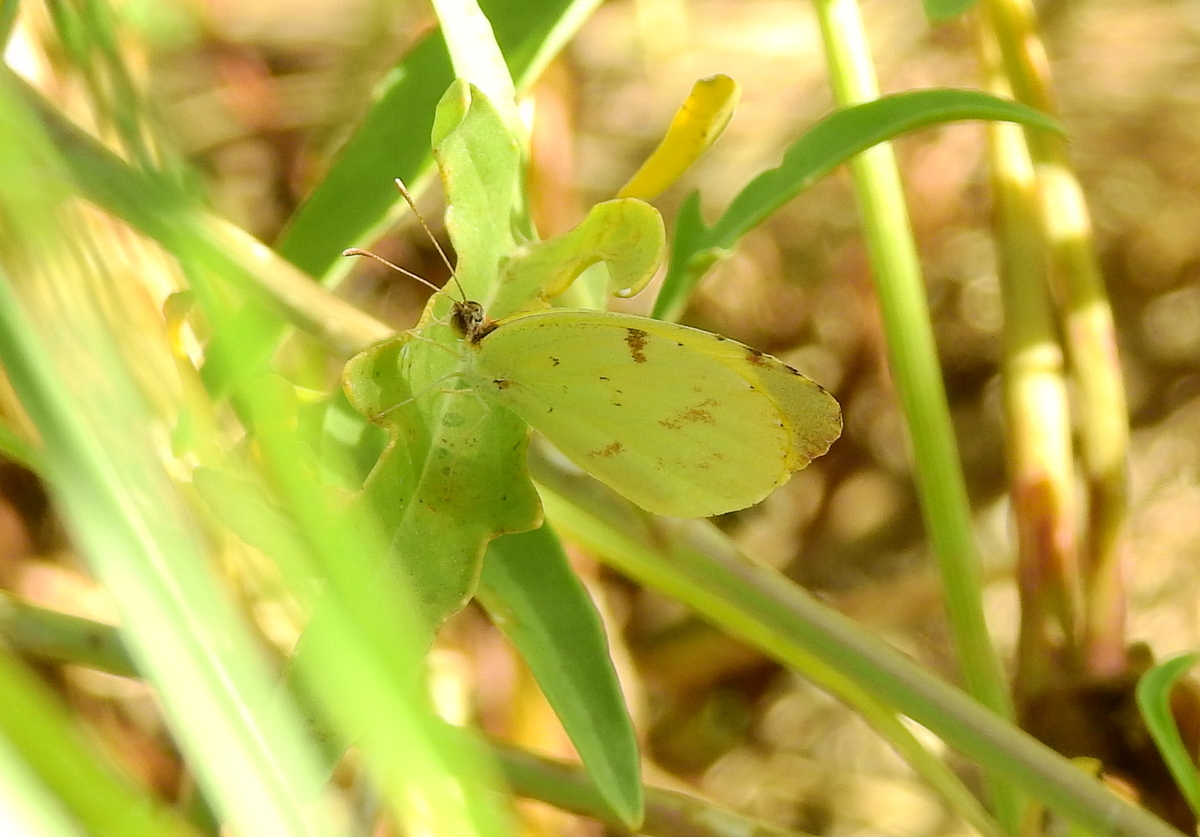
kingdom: Animalia
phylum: Arthropoda
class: Insecta
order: Lepidoptera
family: Pieridae
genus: Teriocolias
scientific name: Teriocolias
